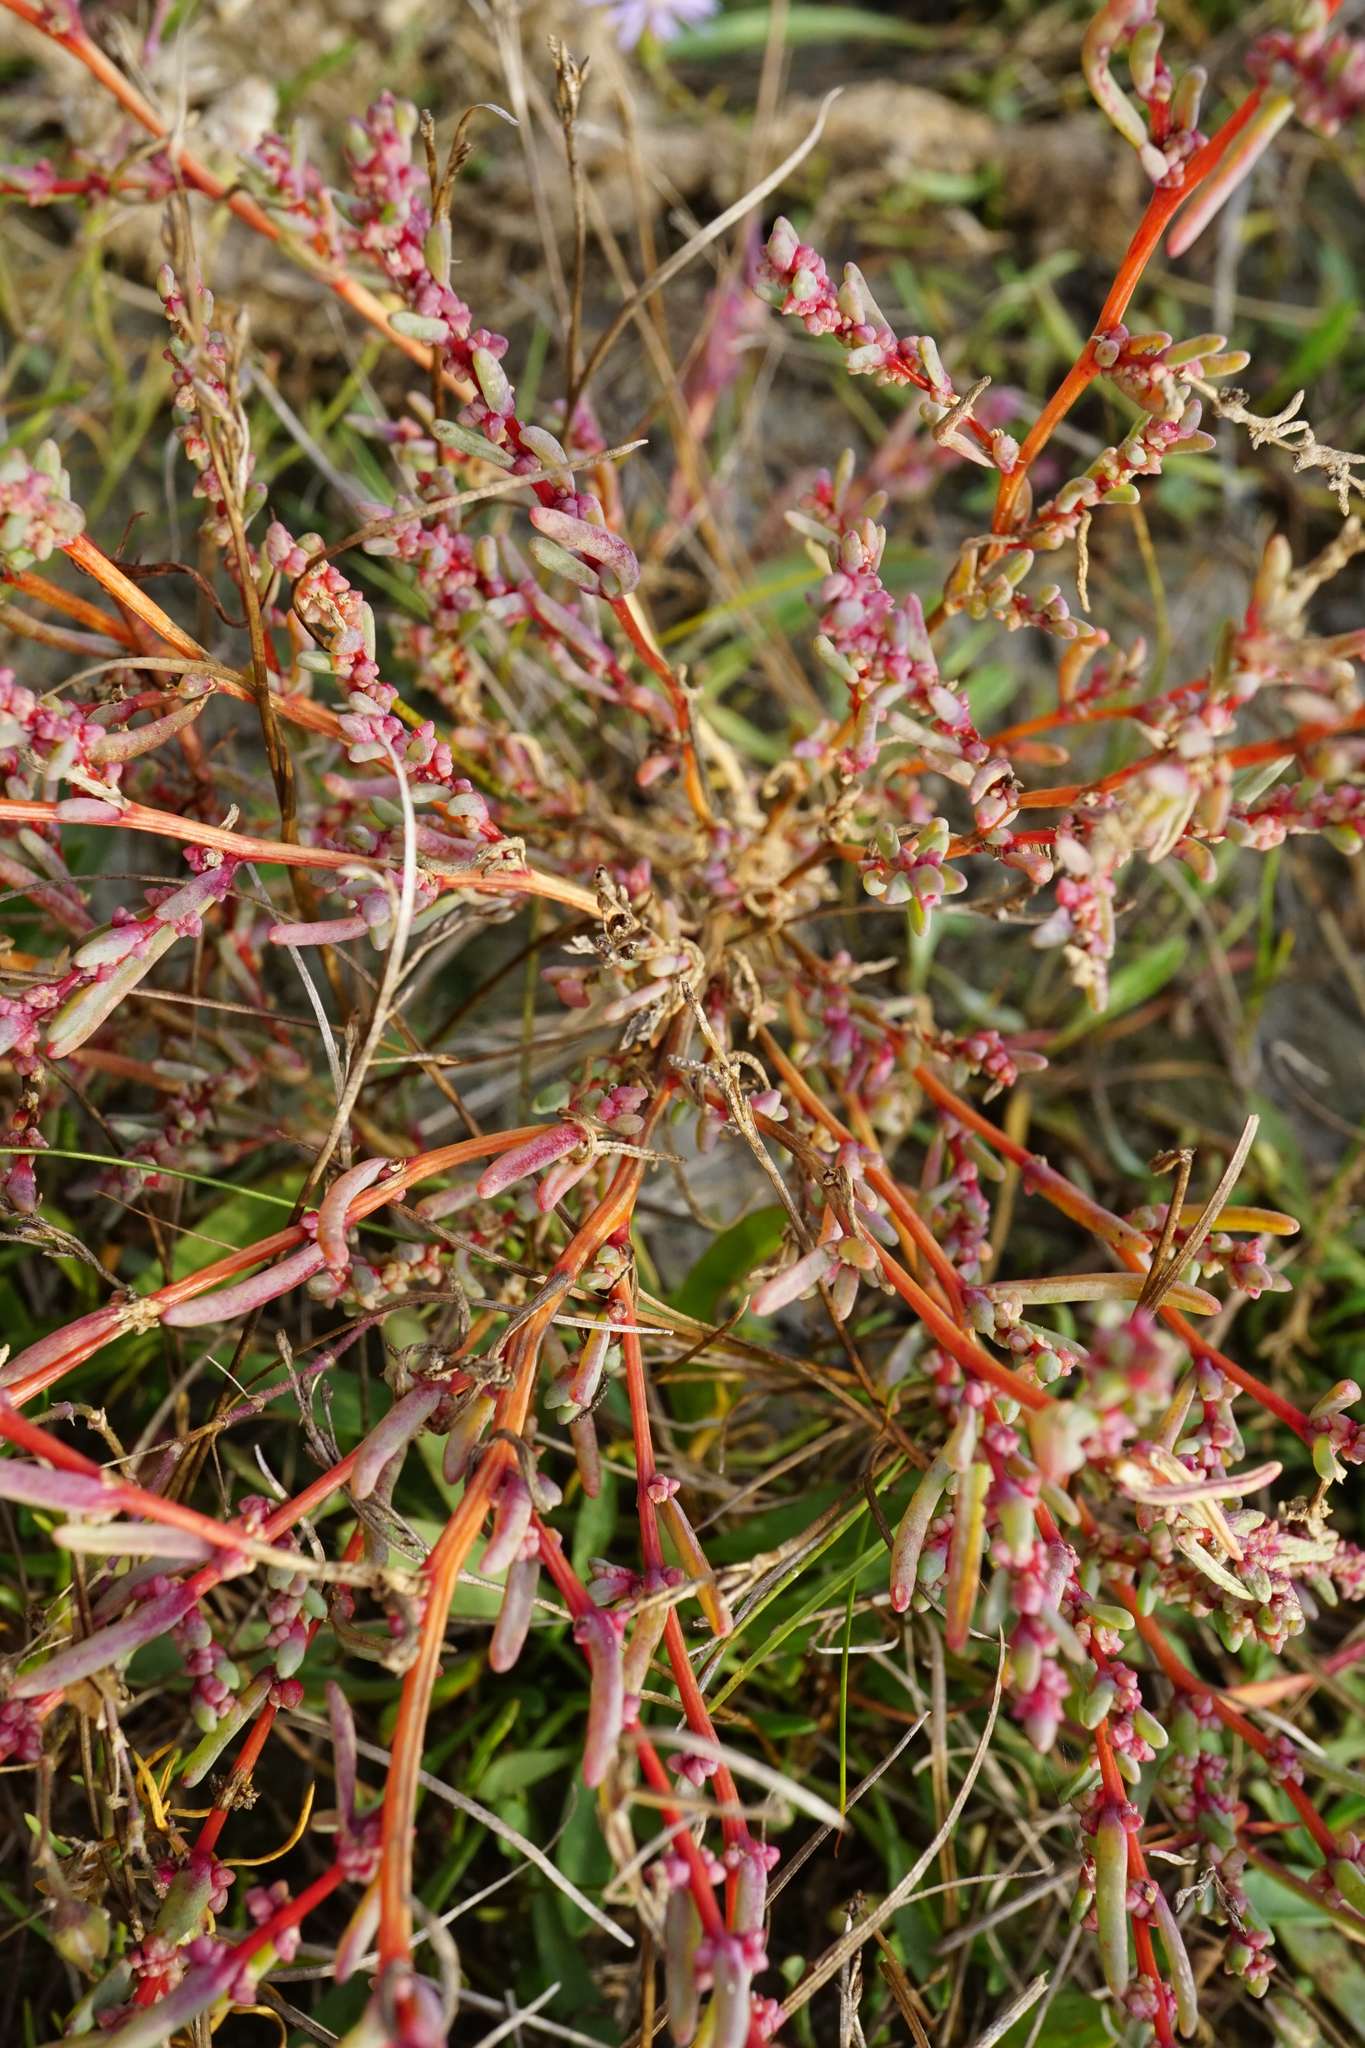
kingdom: Plantae
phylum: Tracheophyta
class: Magnoliopsida
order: Caryophyllales
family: Amaranthaceae
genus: Suaeda
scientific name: Suaeda pannonica
